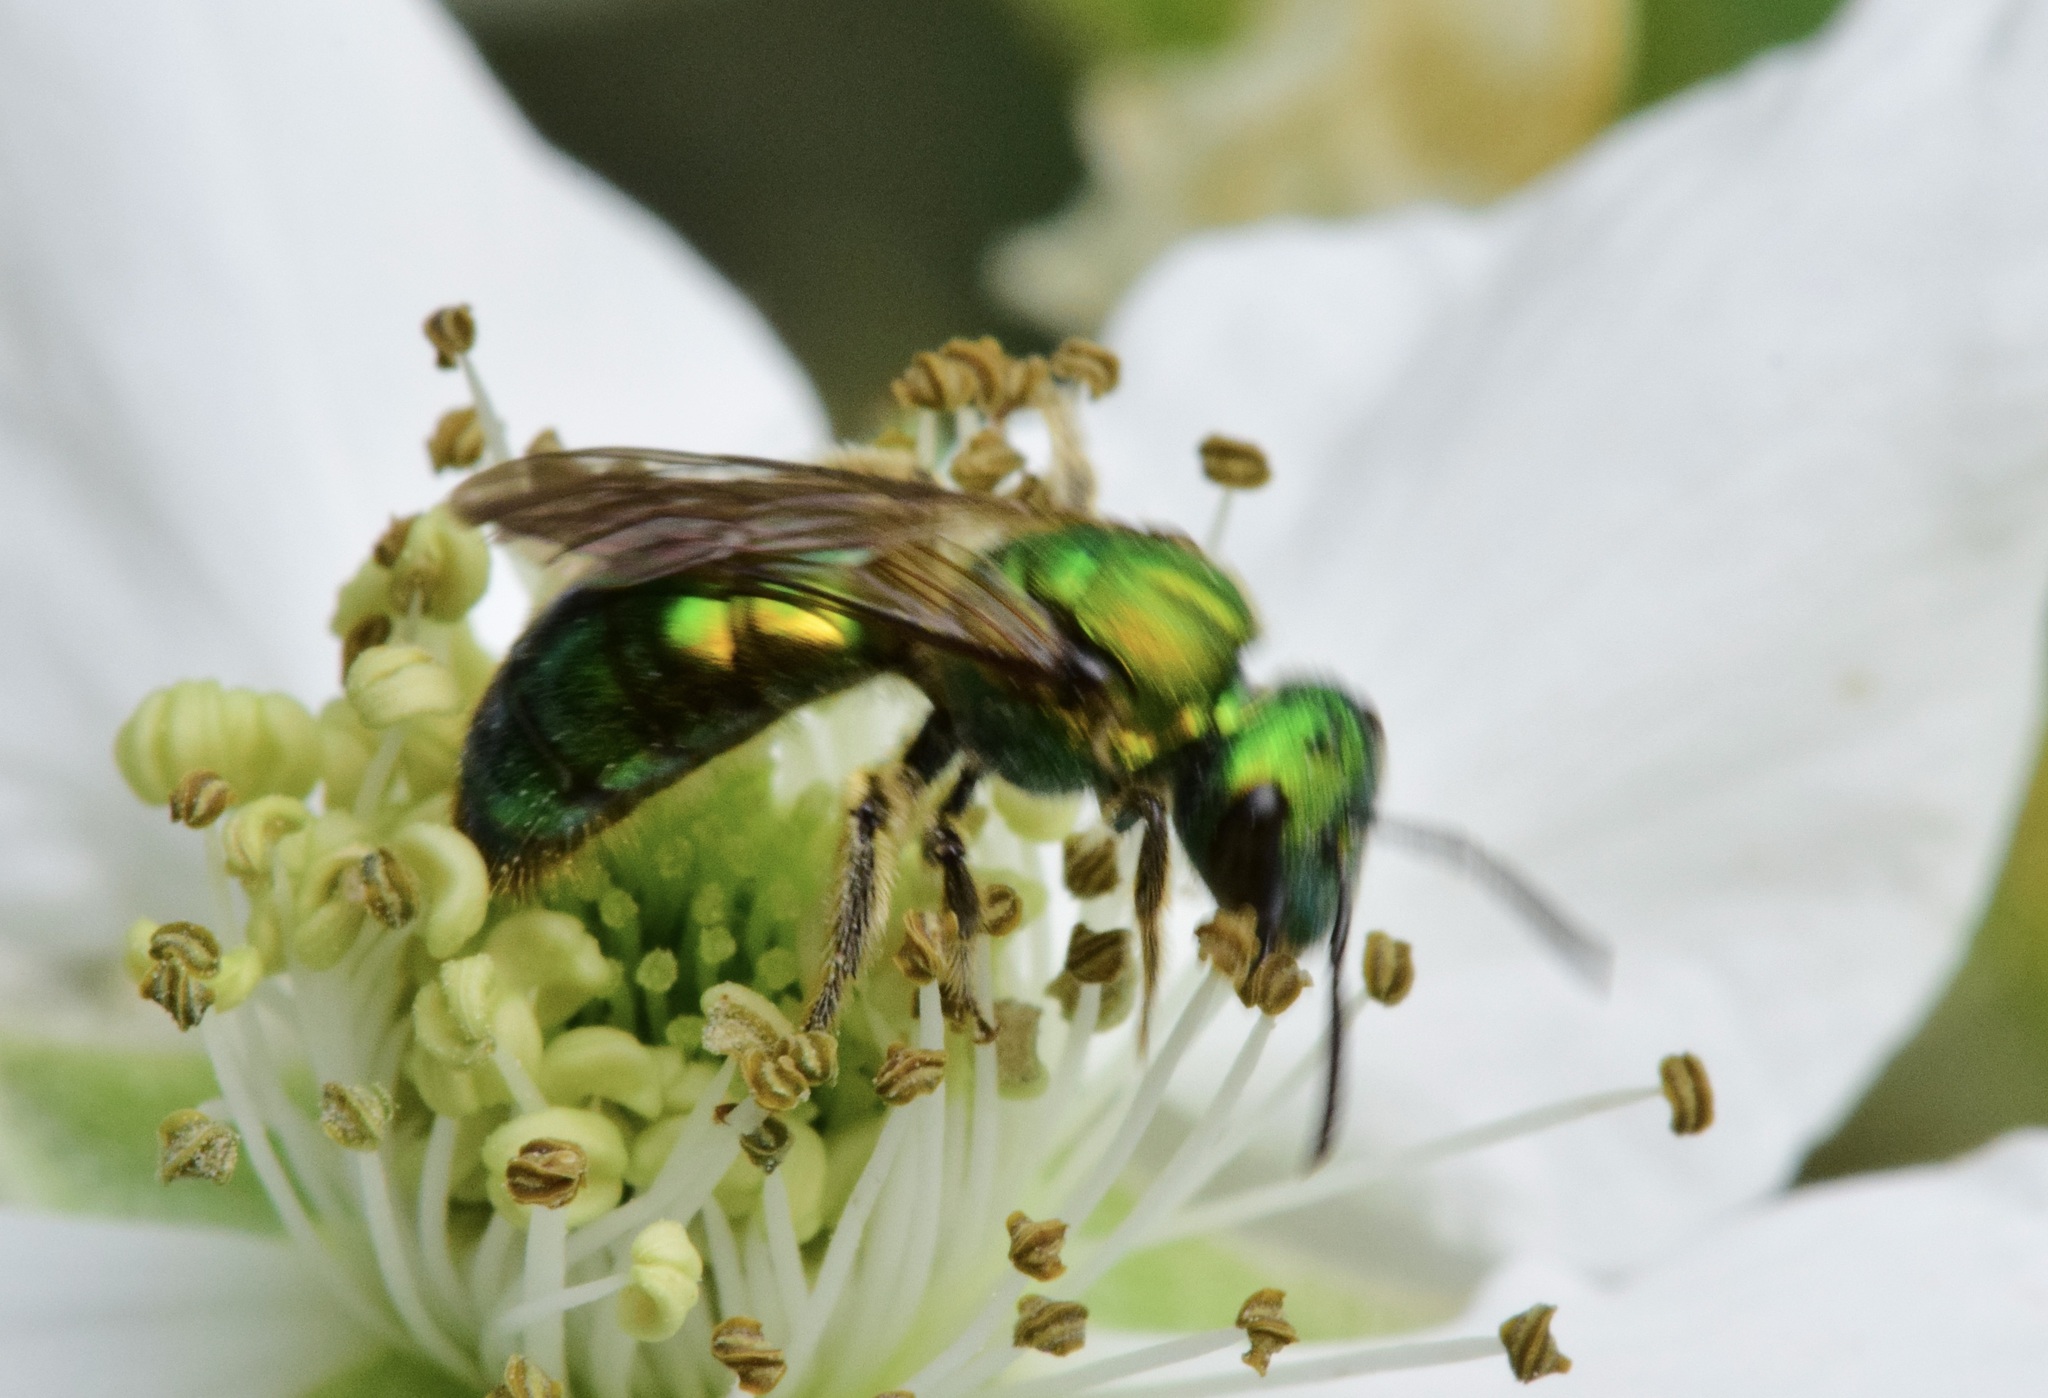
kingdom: Animalia
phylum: Arthropoda
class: Insecta
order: Hymenoptera
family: Halictidae
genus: Augochlora
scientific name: Augochlora pura
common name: Pure green sweat bee
